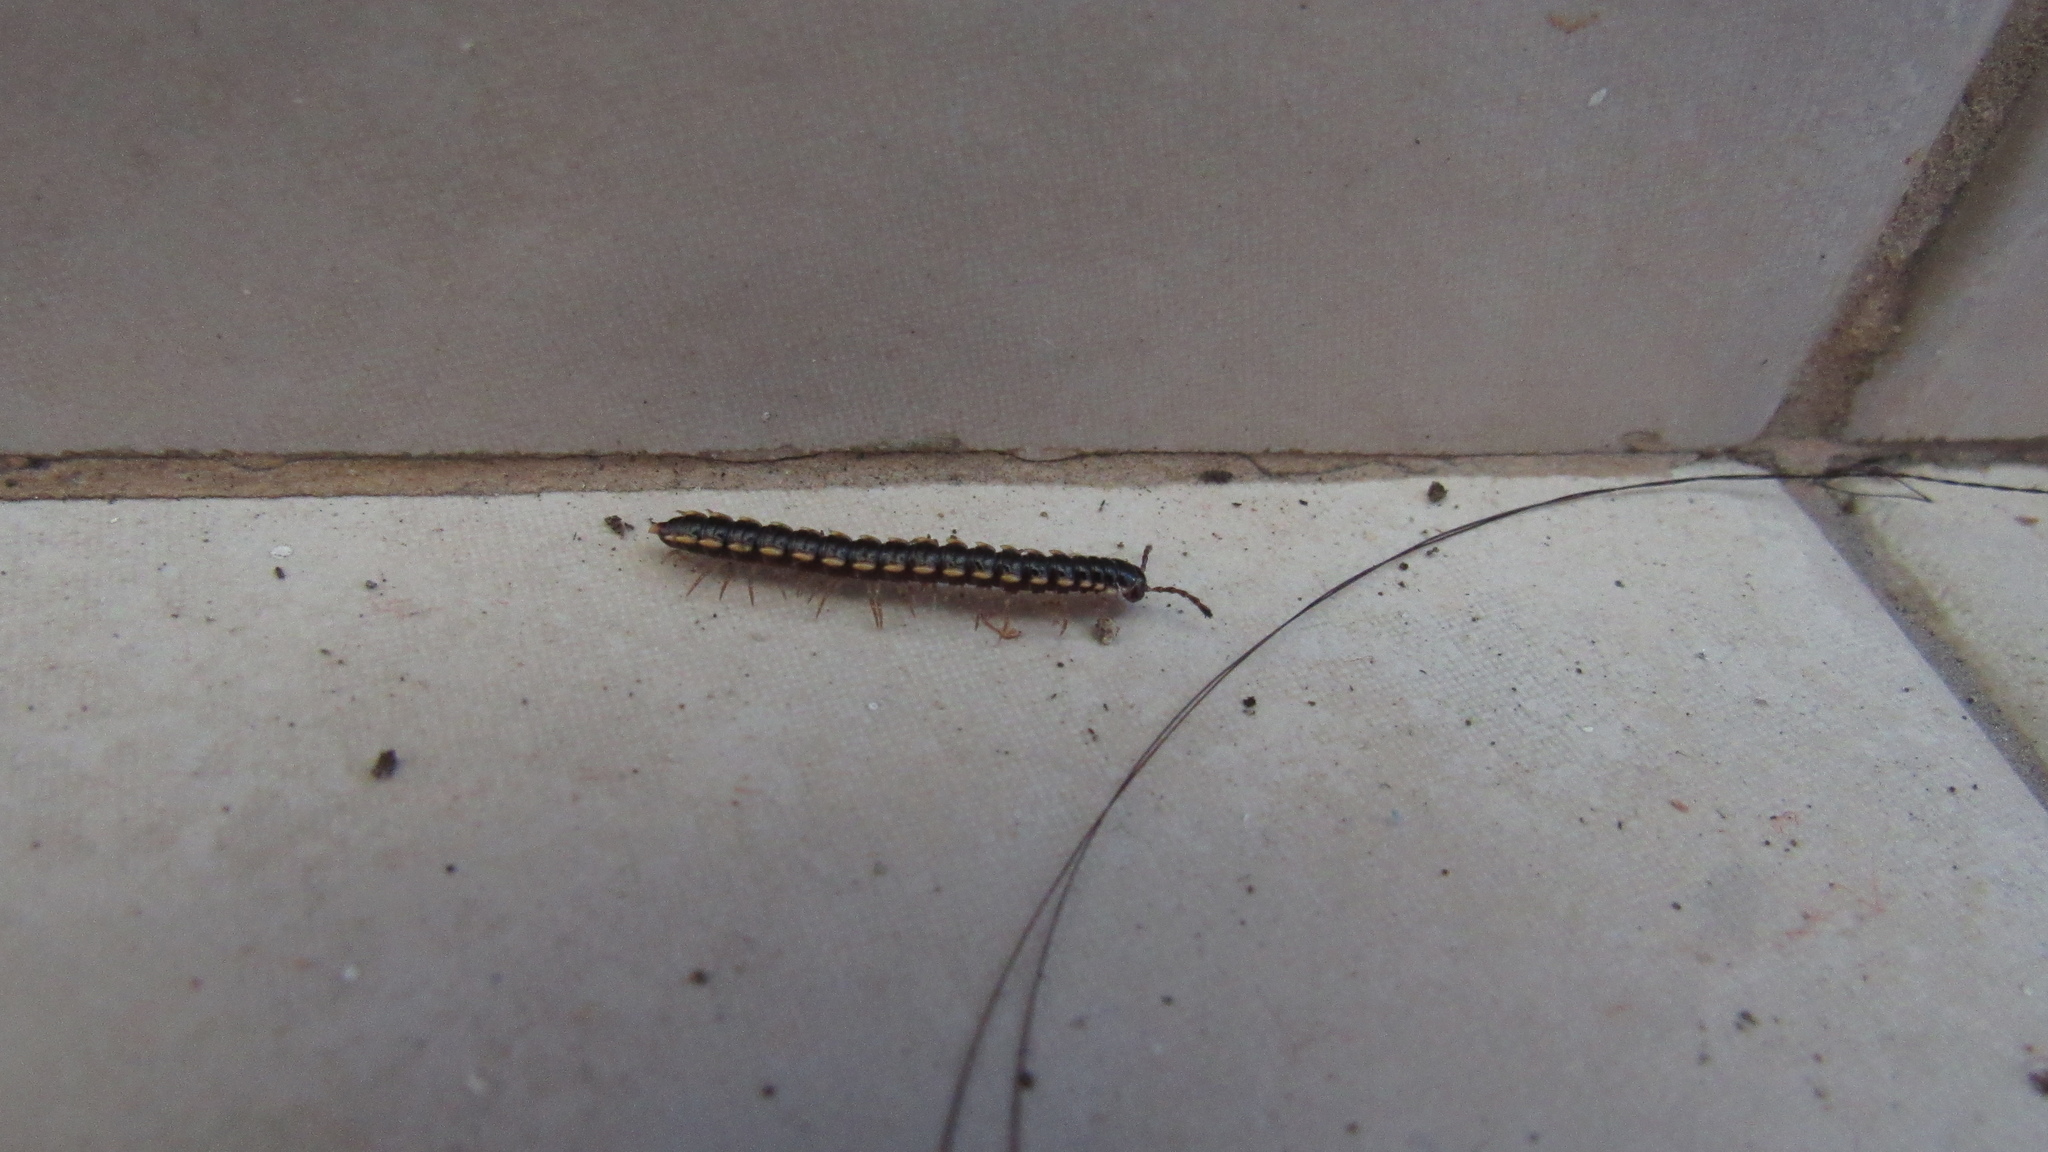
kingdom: Animalia
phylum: Arthropoda
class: Diplopoda
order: Polydesmida
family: Paradoxosomatidae
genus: Orthomorpha
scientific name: Orthomorpha coarctata
